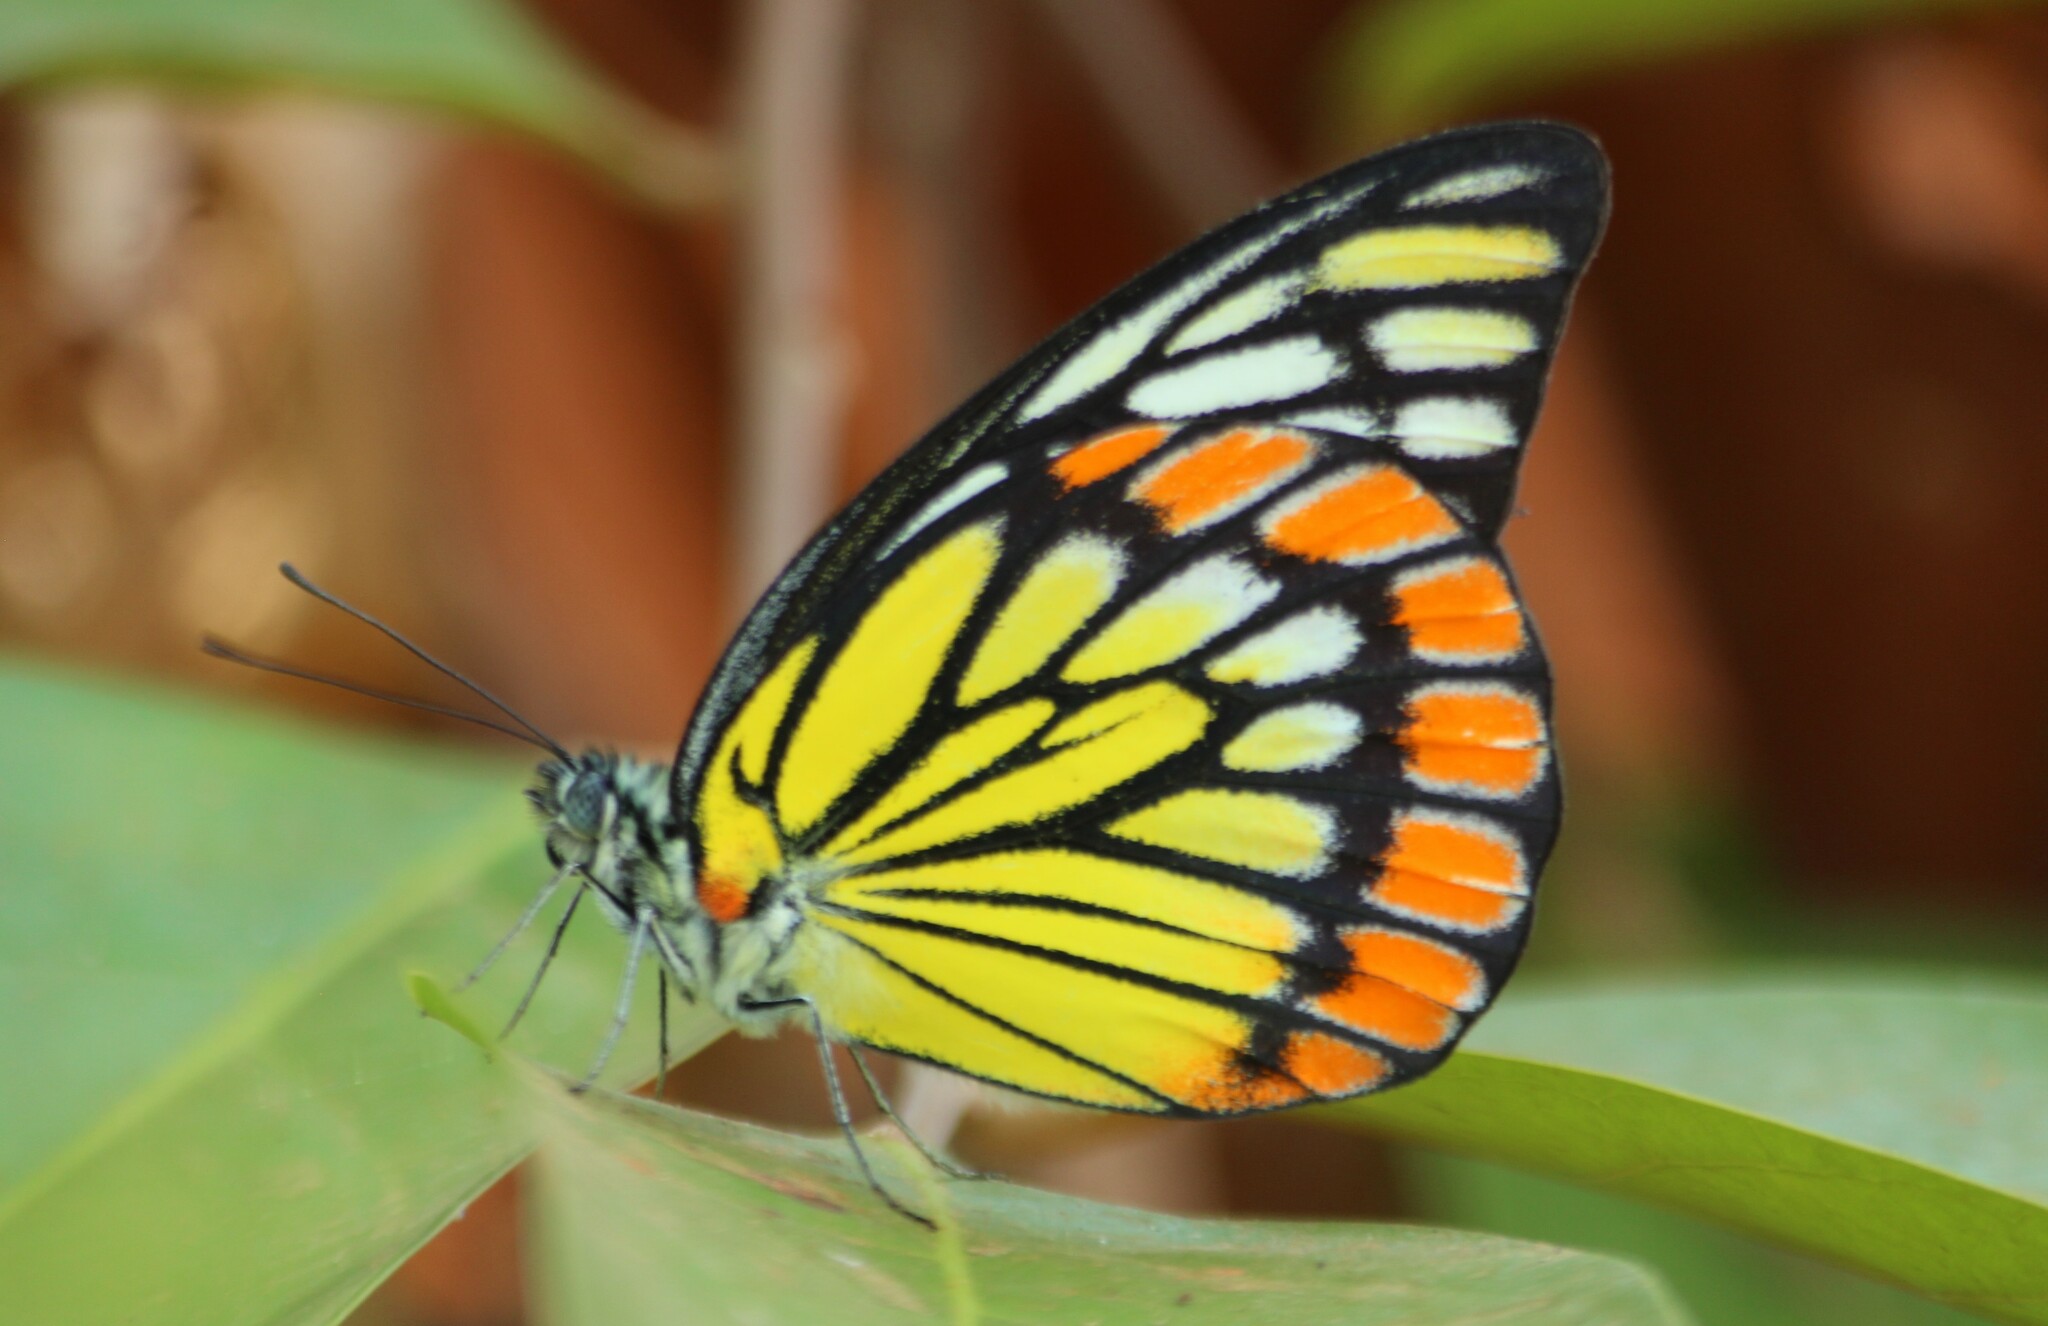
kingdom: Animalia
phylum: Arthropoda
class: Insecta
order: Lepidoptera
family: Pieridae
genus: Prioneris
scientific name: Prioneris sita
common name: Painted sawtooth
